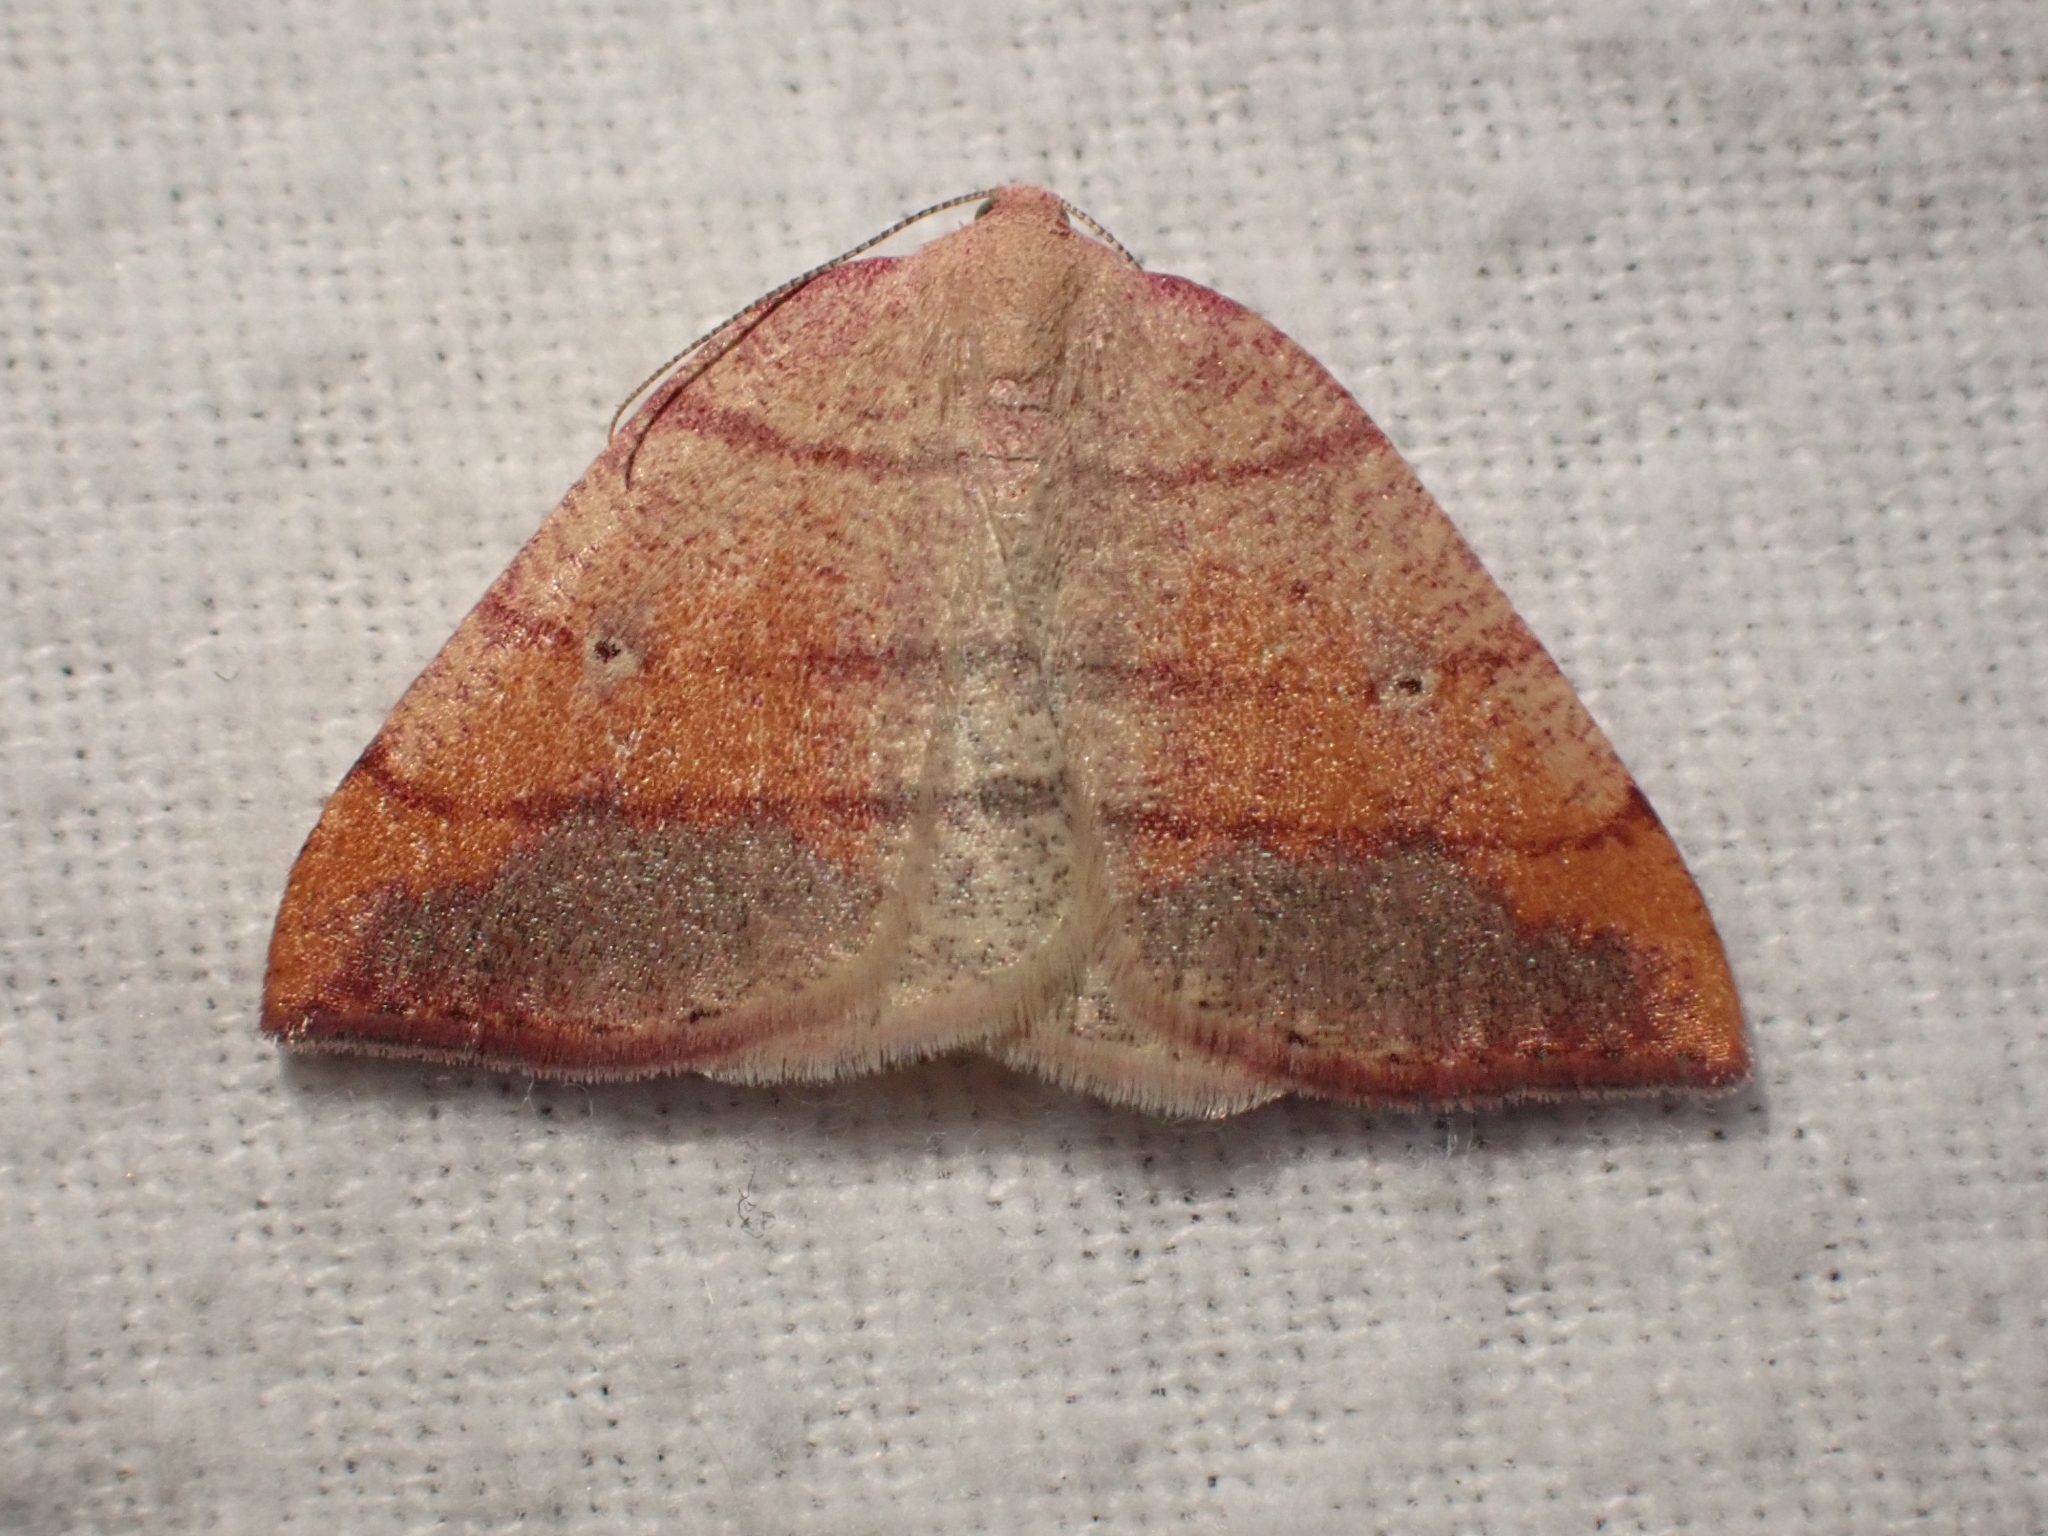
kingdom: Animalia
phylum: Arthropoda
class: Insecta
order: Lepidoptera
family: Geometridae
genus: Drepanulatrix
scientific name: Drepanulatrix carnearia
